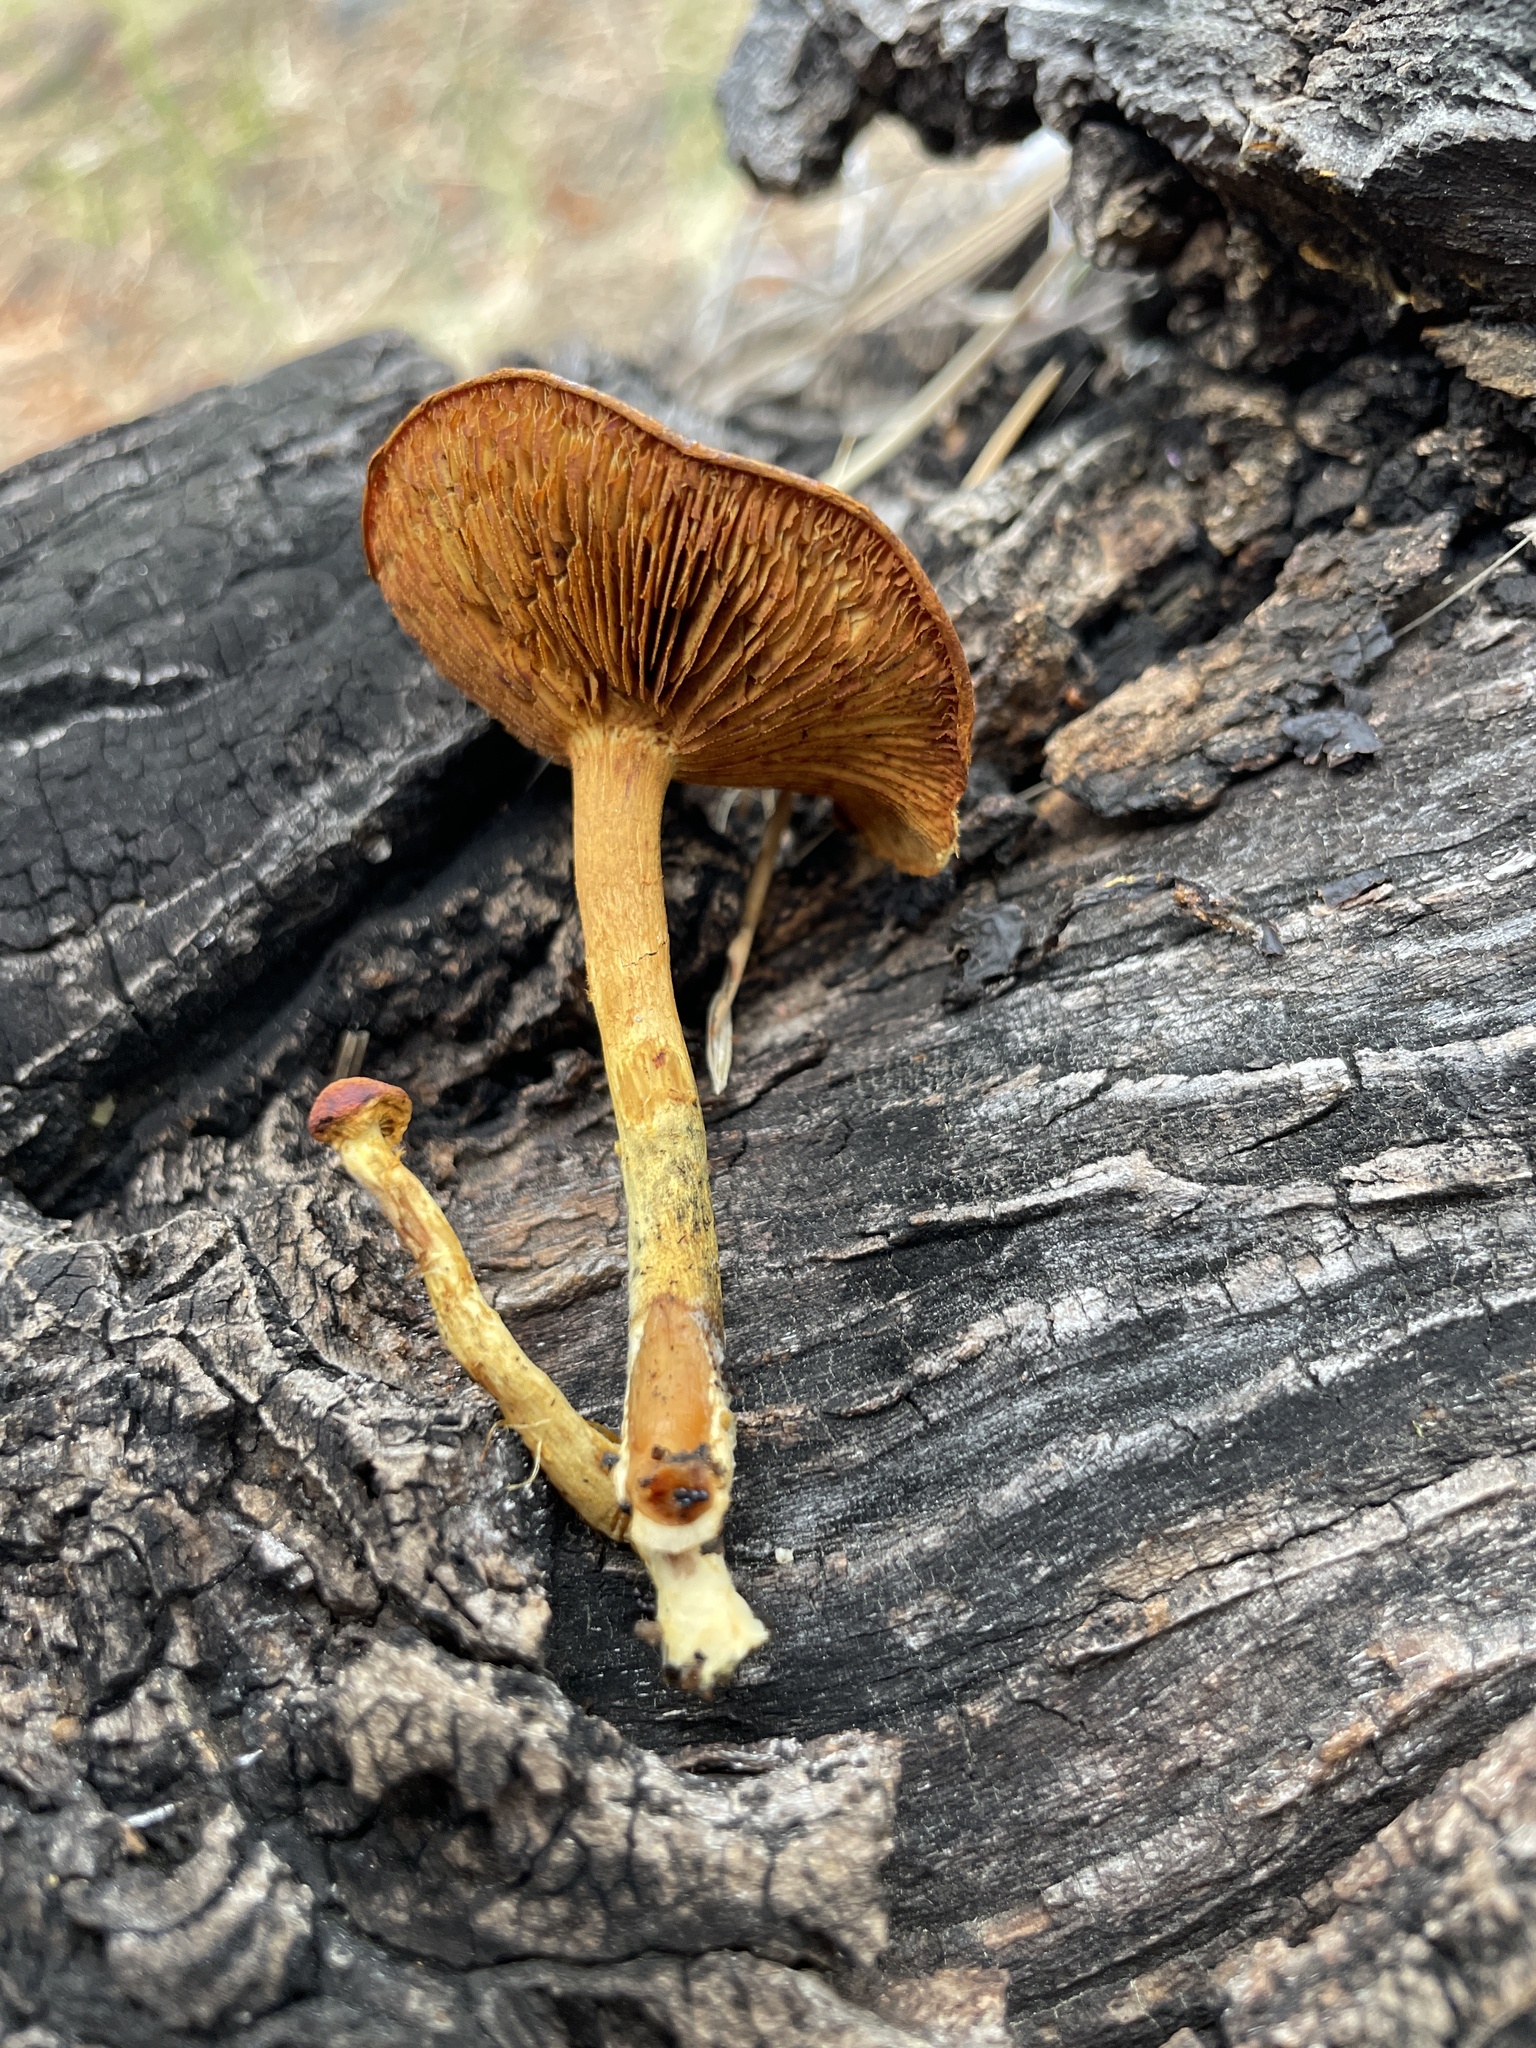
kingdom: Fungi
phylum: Basidiomycota
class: Agaricomycetes
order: Agaricales
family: Tubariaceae
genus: Phaeomarasmius
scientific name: Phaeomarasmius proximans
